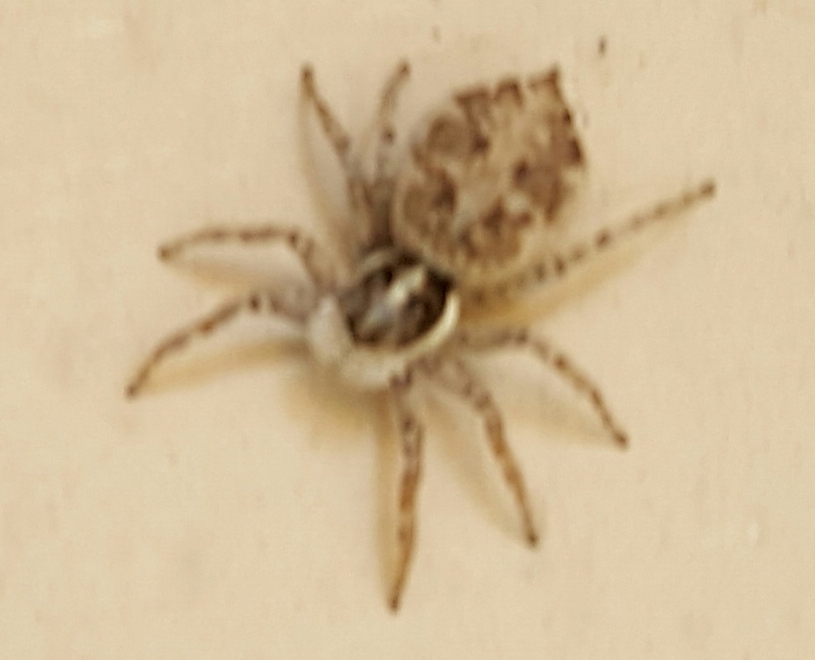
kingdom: Animalia
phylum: Arthropoda
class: Arachnida
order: Araneae
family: Salticidae
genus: Menemerus
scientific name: Menemerus semilimbatus
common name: Jumping spider
